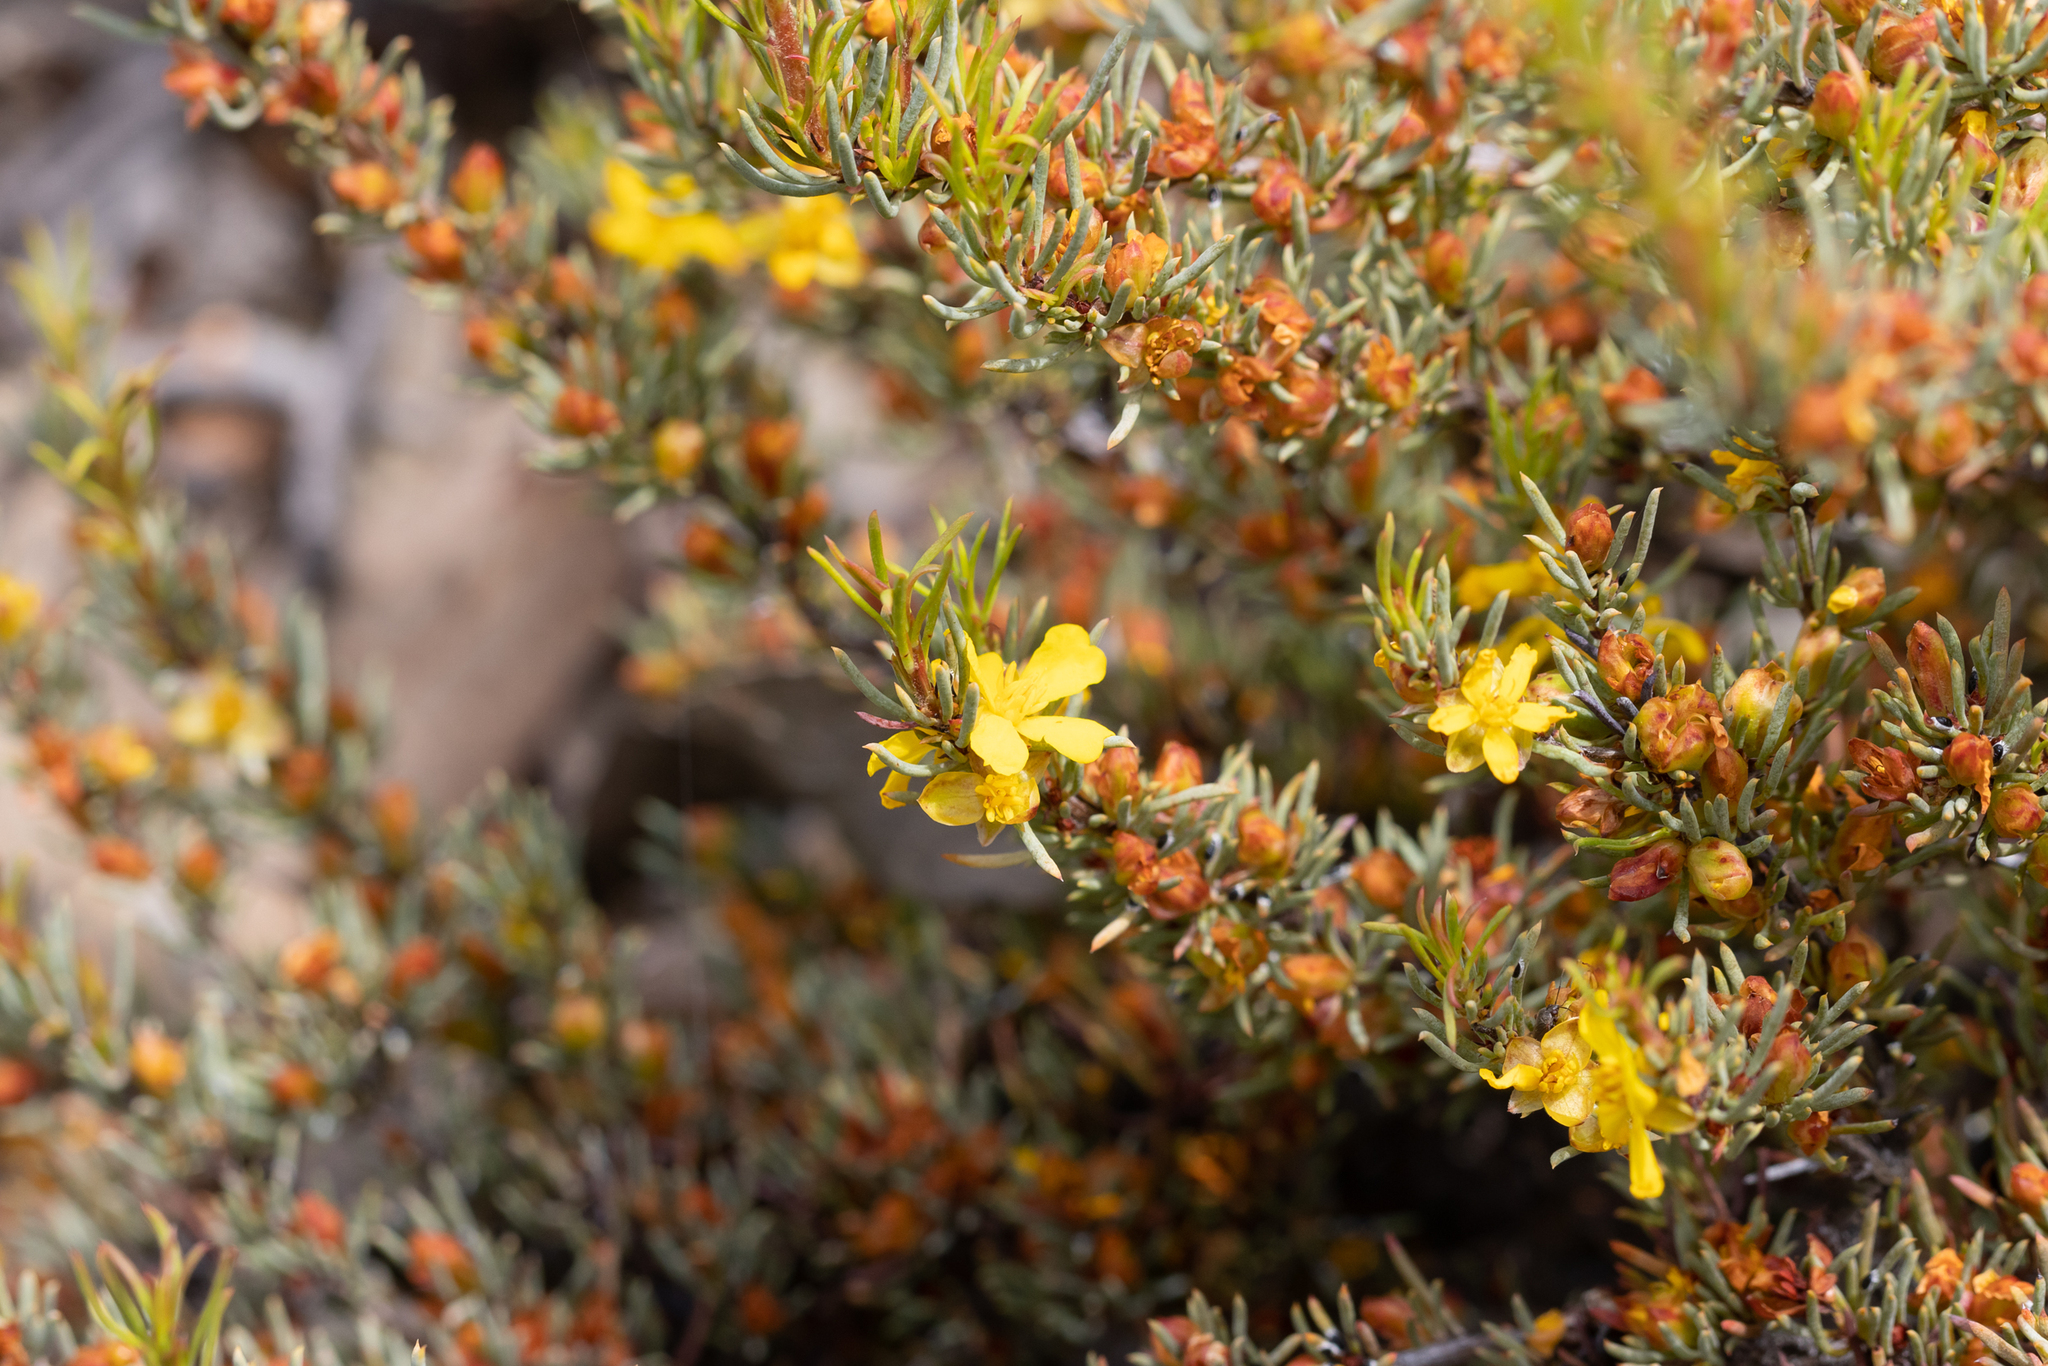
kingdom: Plantae
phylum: Tracheophyta
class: Magnoliopsida
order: Dilleniales
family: Dilleniaceae
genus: Hibbertia
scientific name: Hibbertia hemignosta
